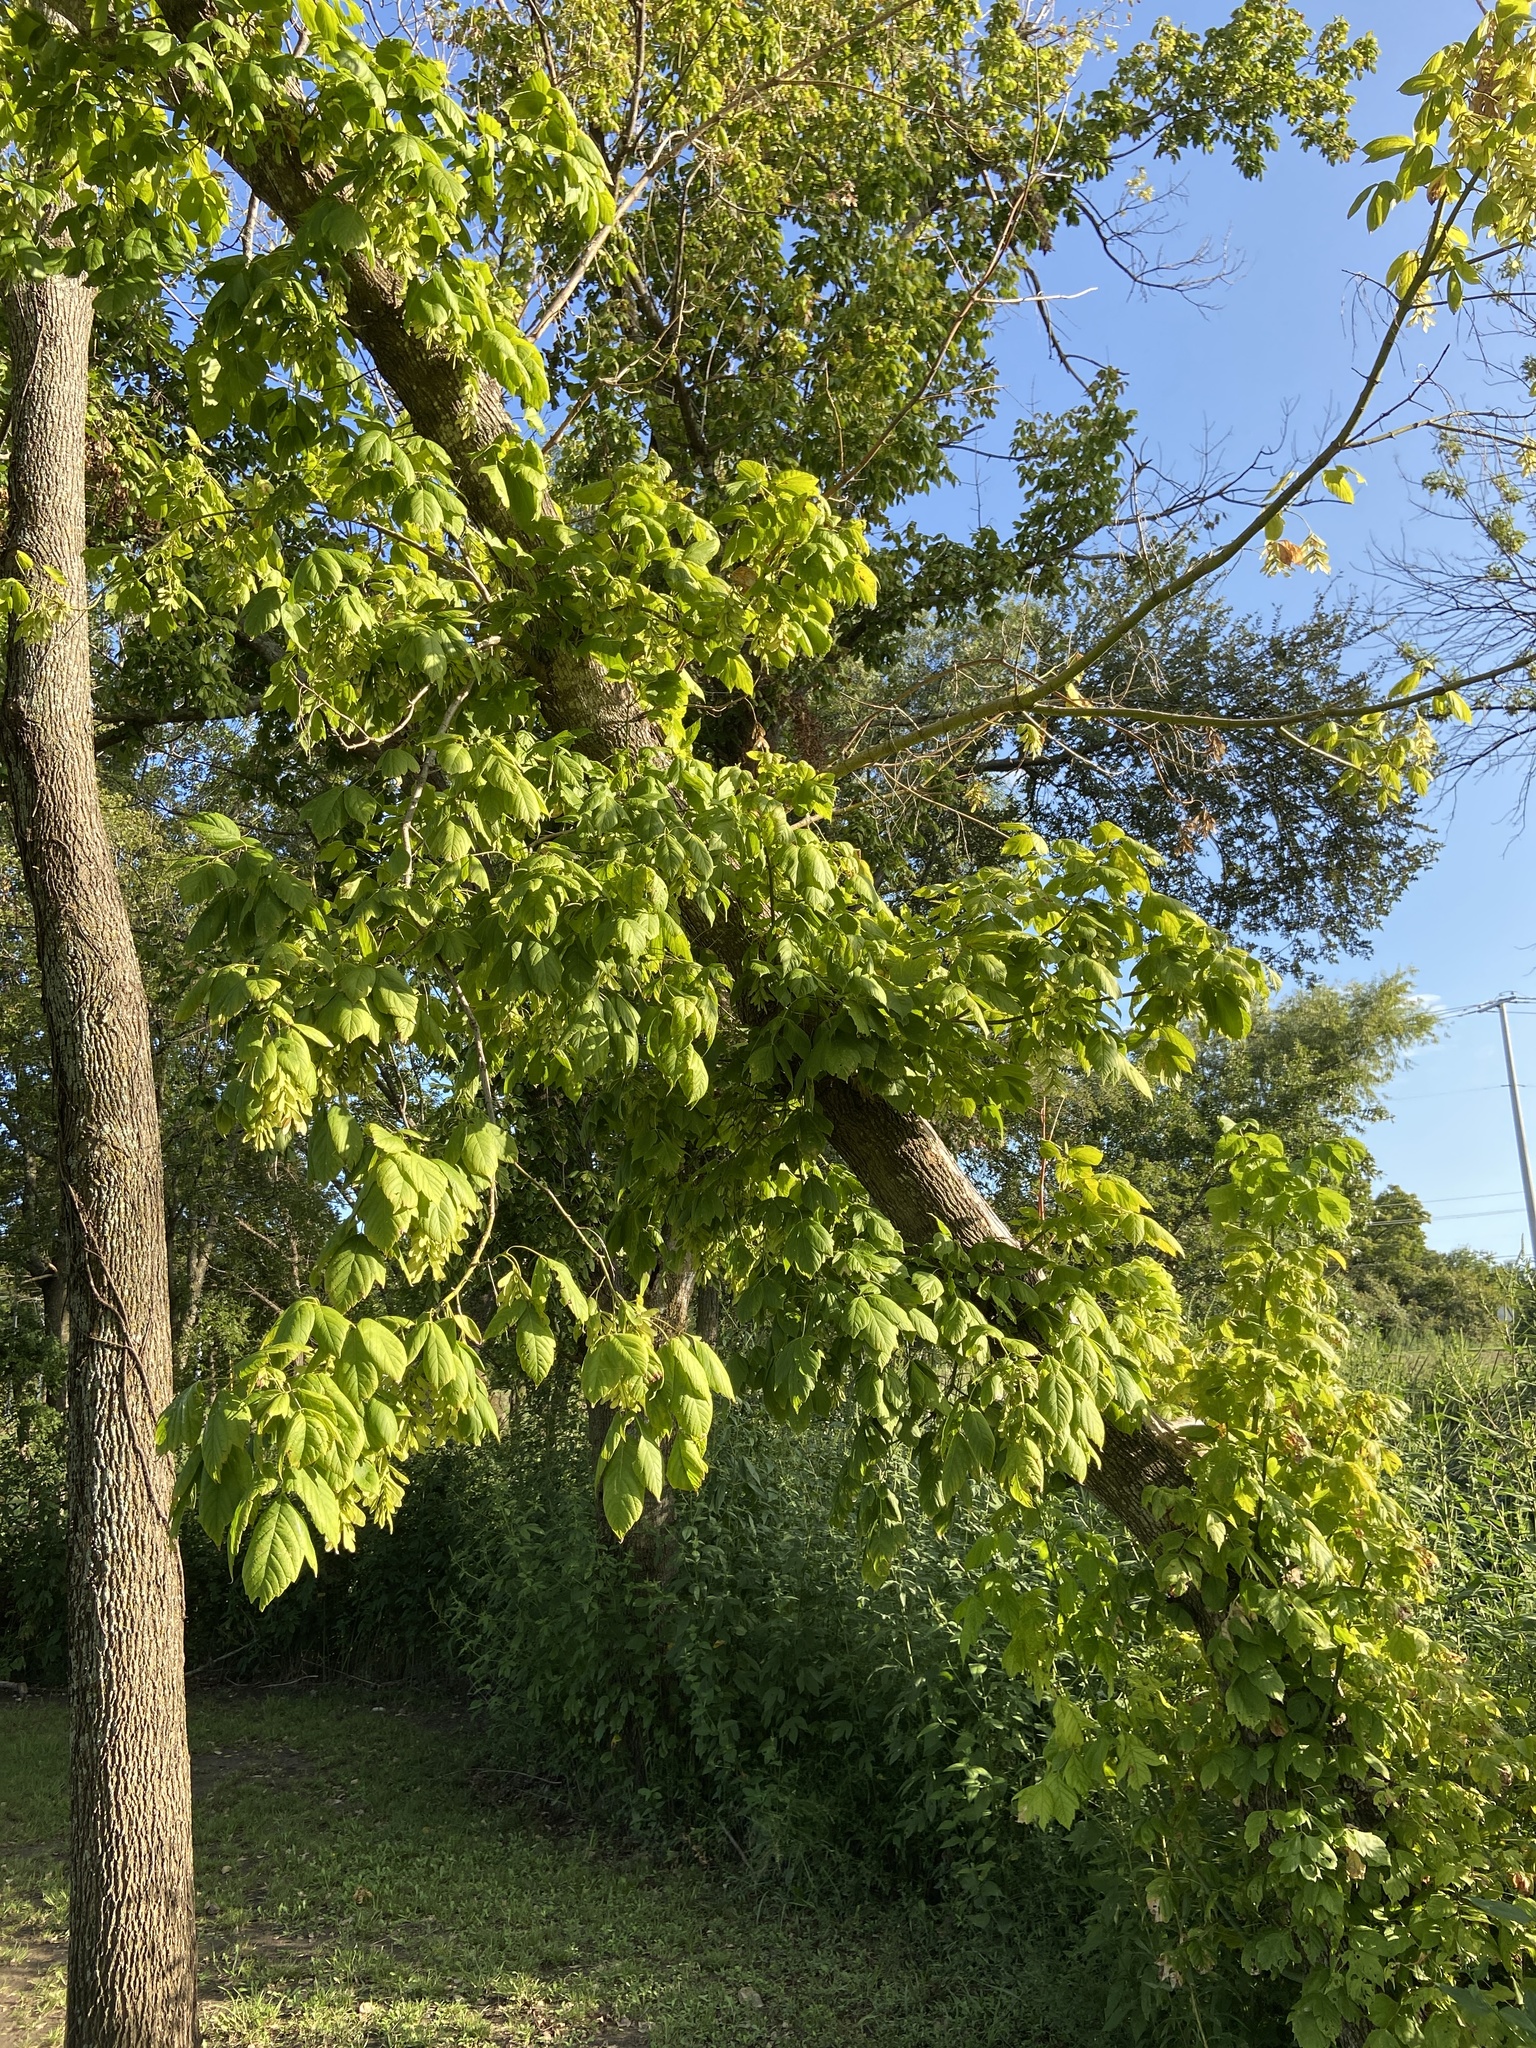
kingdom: Plantae
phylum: Tracheophyta
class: Magnoliopsida
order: Sapindales
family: Sapindaceae
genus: Acer
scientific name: Acer negundo
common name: Ashleaf maple
